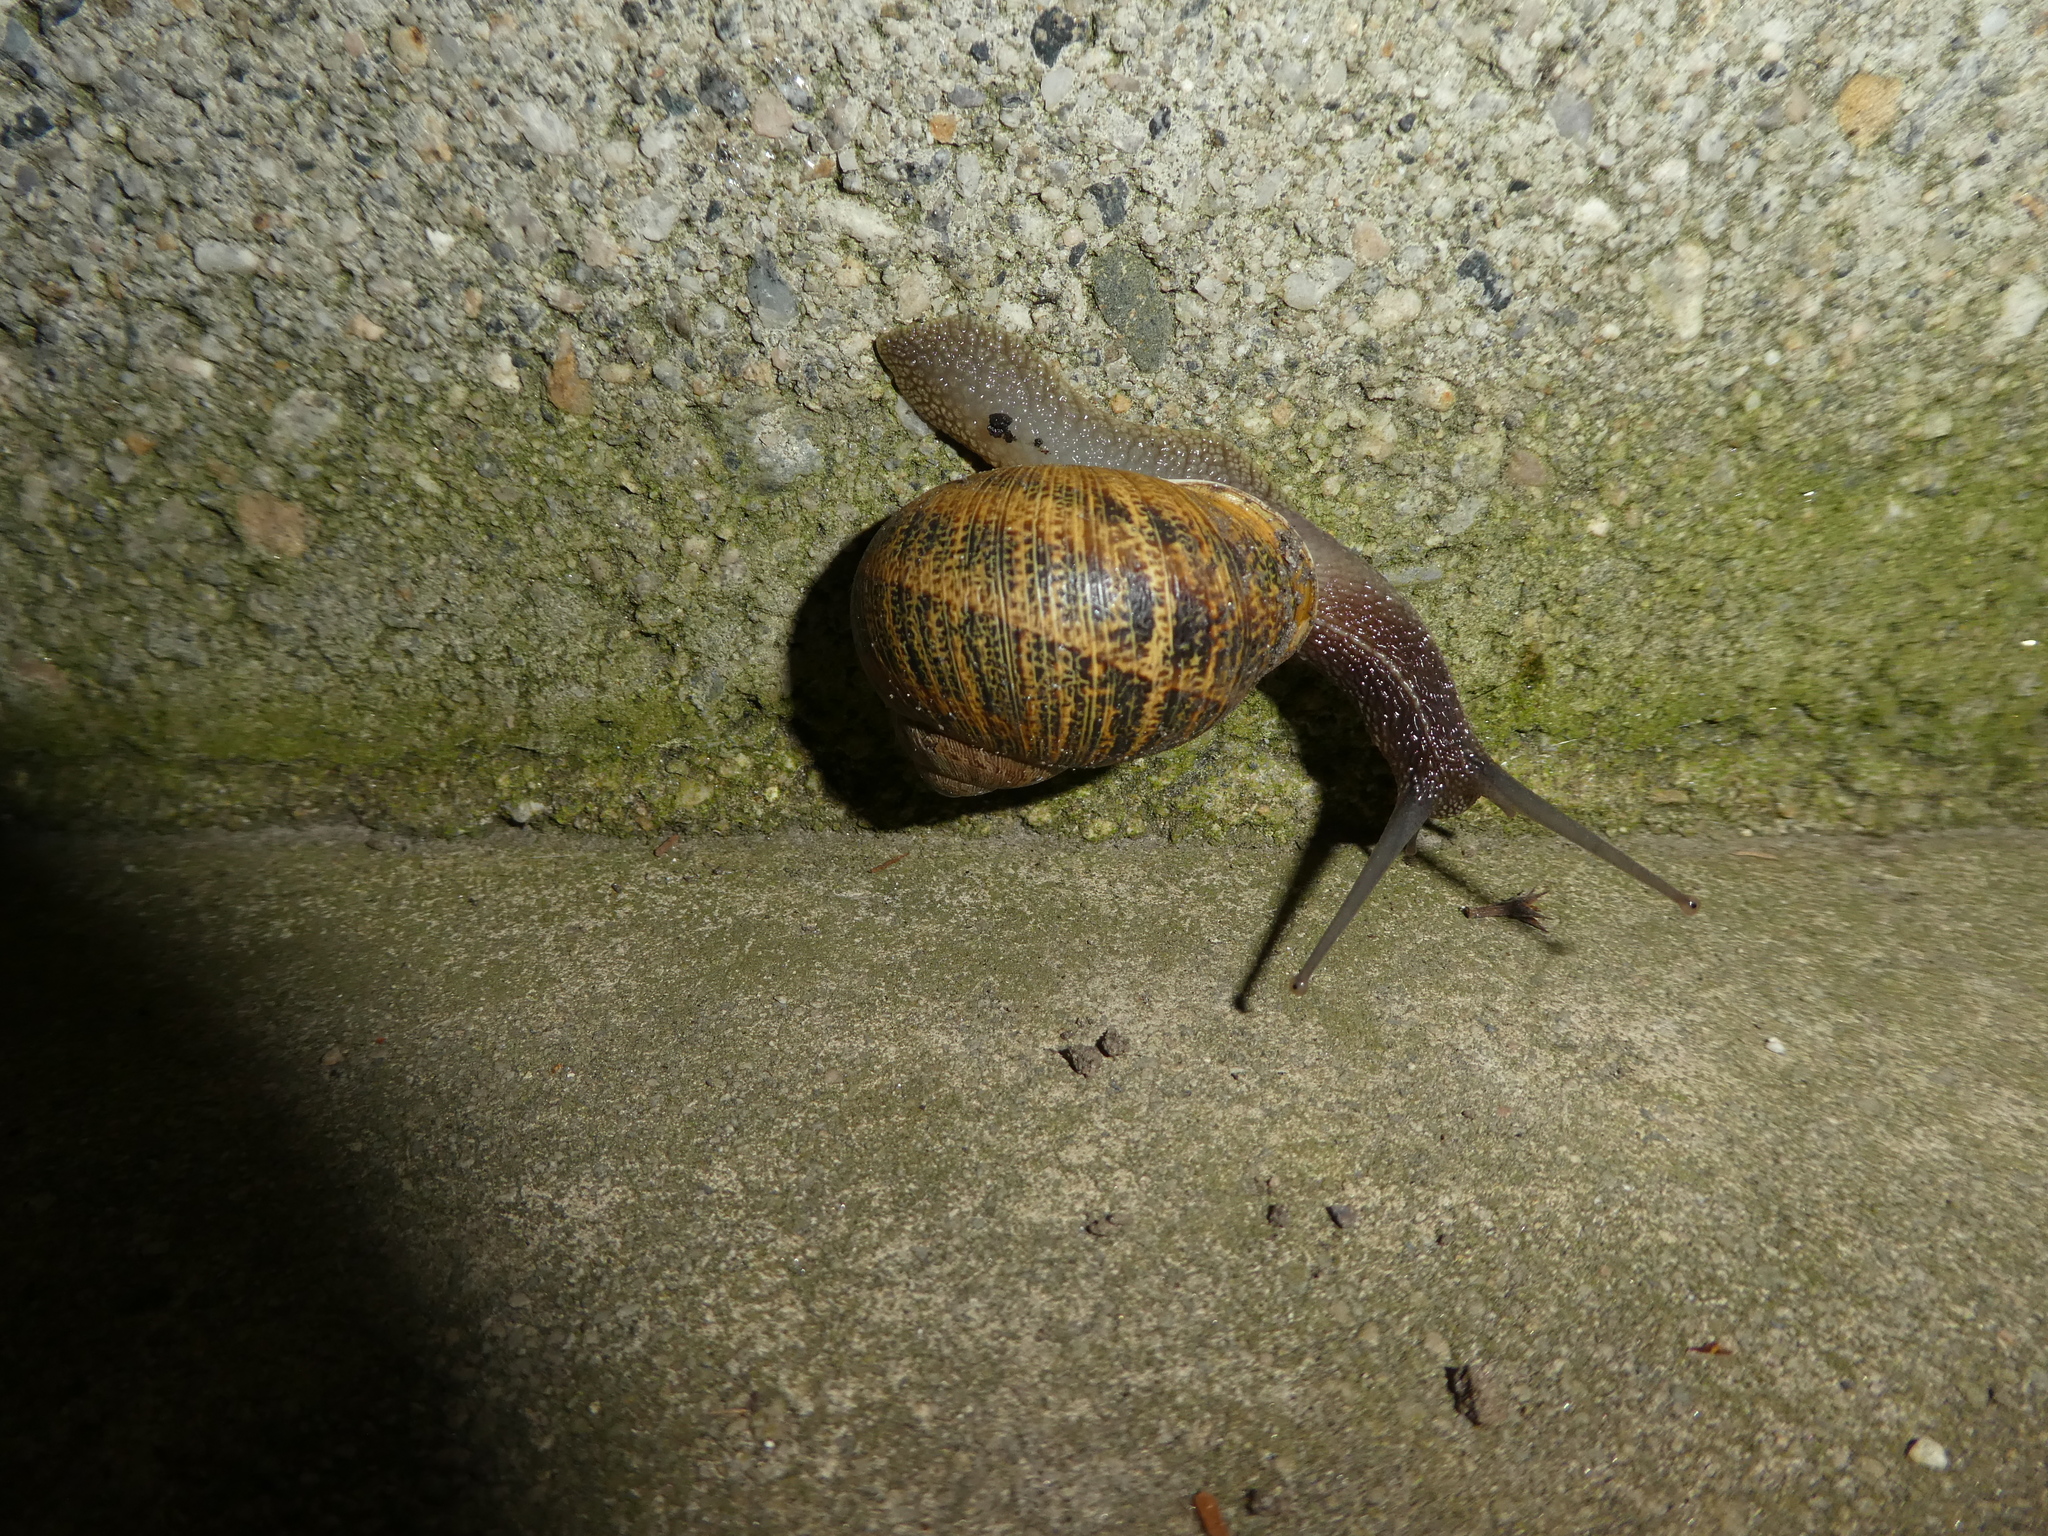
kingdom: Animalia
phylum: Mollusca
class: Gastropoda
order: Stylommatophora
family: Helicidae
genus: Cornu
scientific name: Cornu aspersum
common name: Brown garden snail
